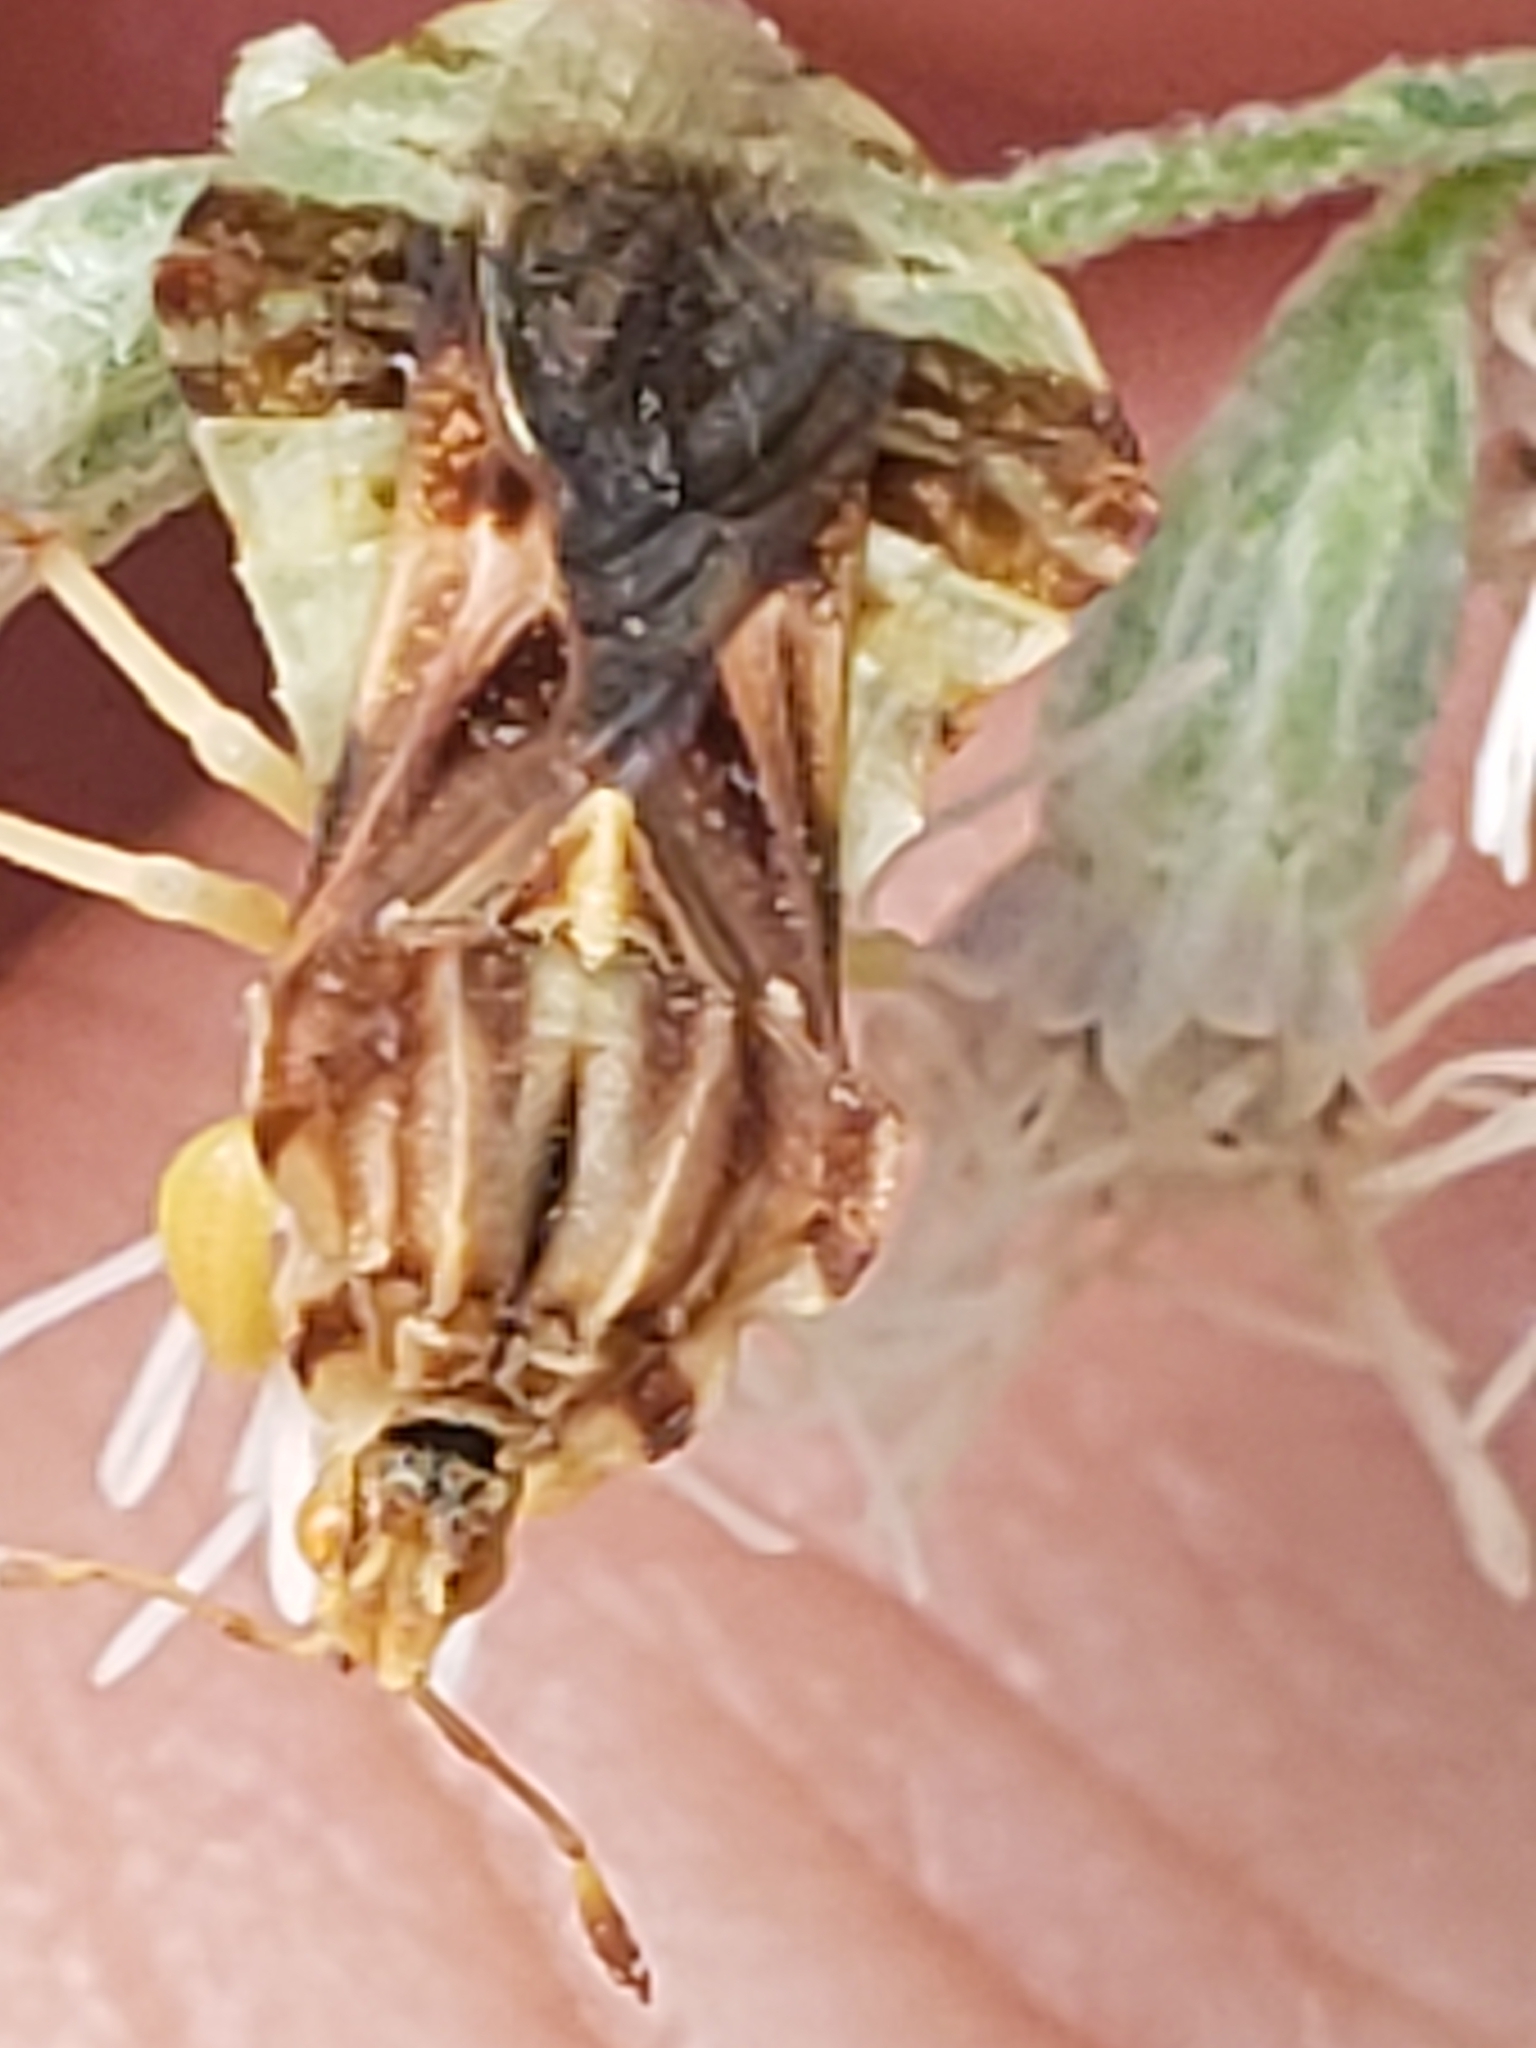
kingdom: Animalia
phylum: Arthropoda
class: Insecta
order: Hemiptera
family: Reduviidae
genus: Phymata
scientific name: Phymata fasciata
